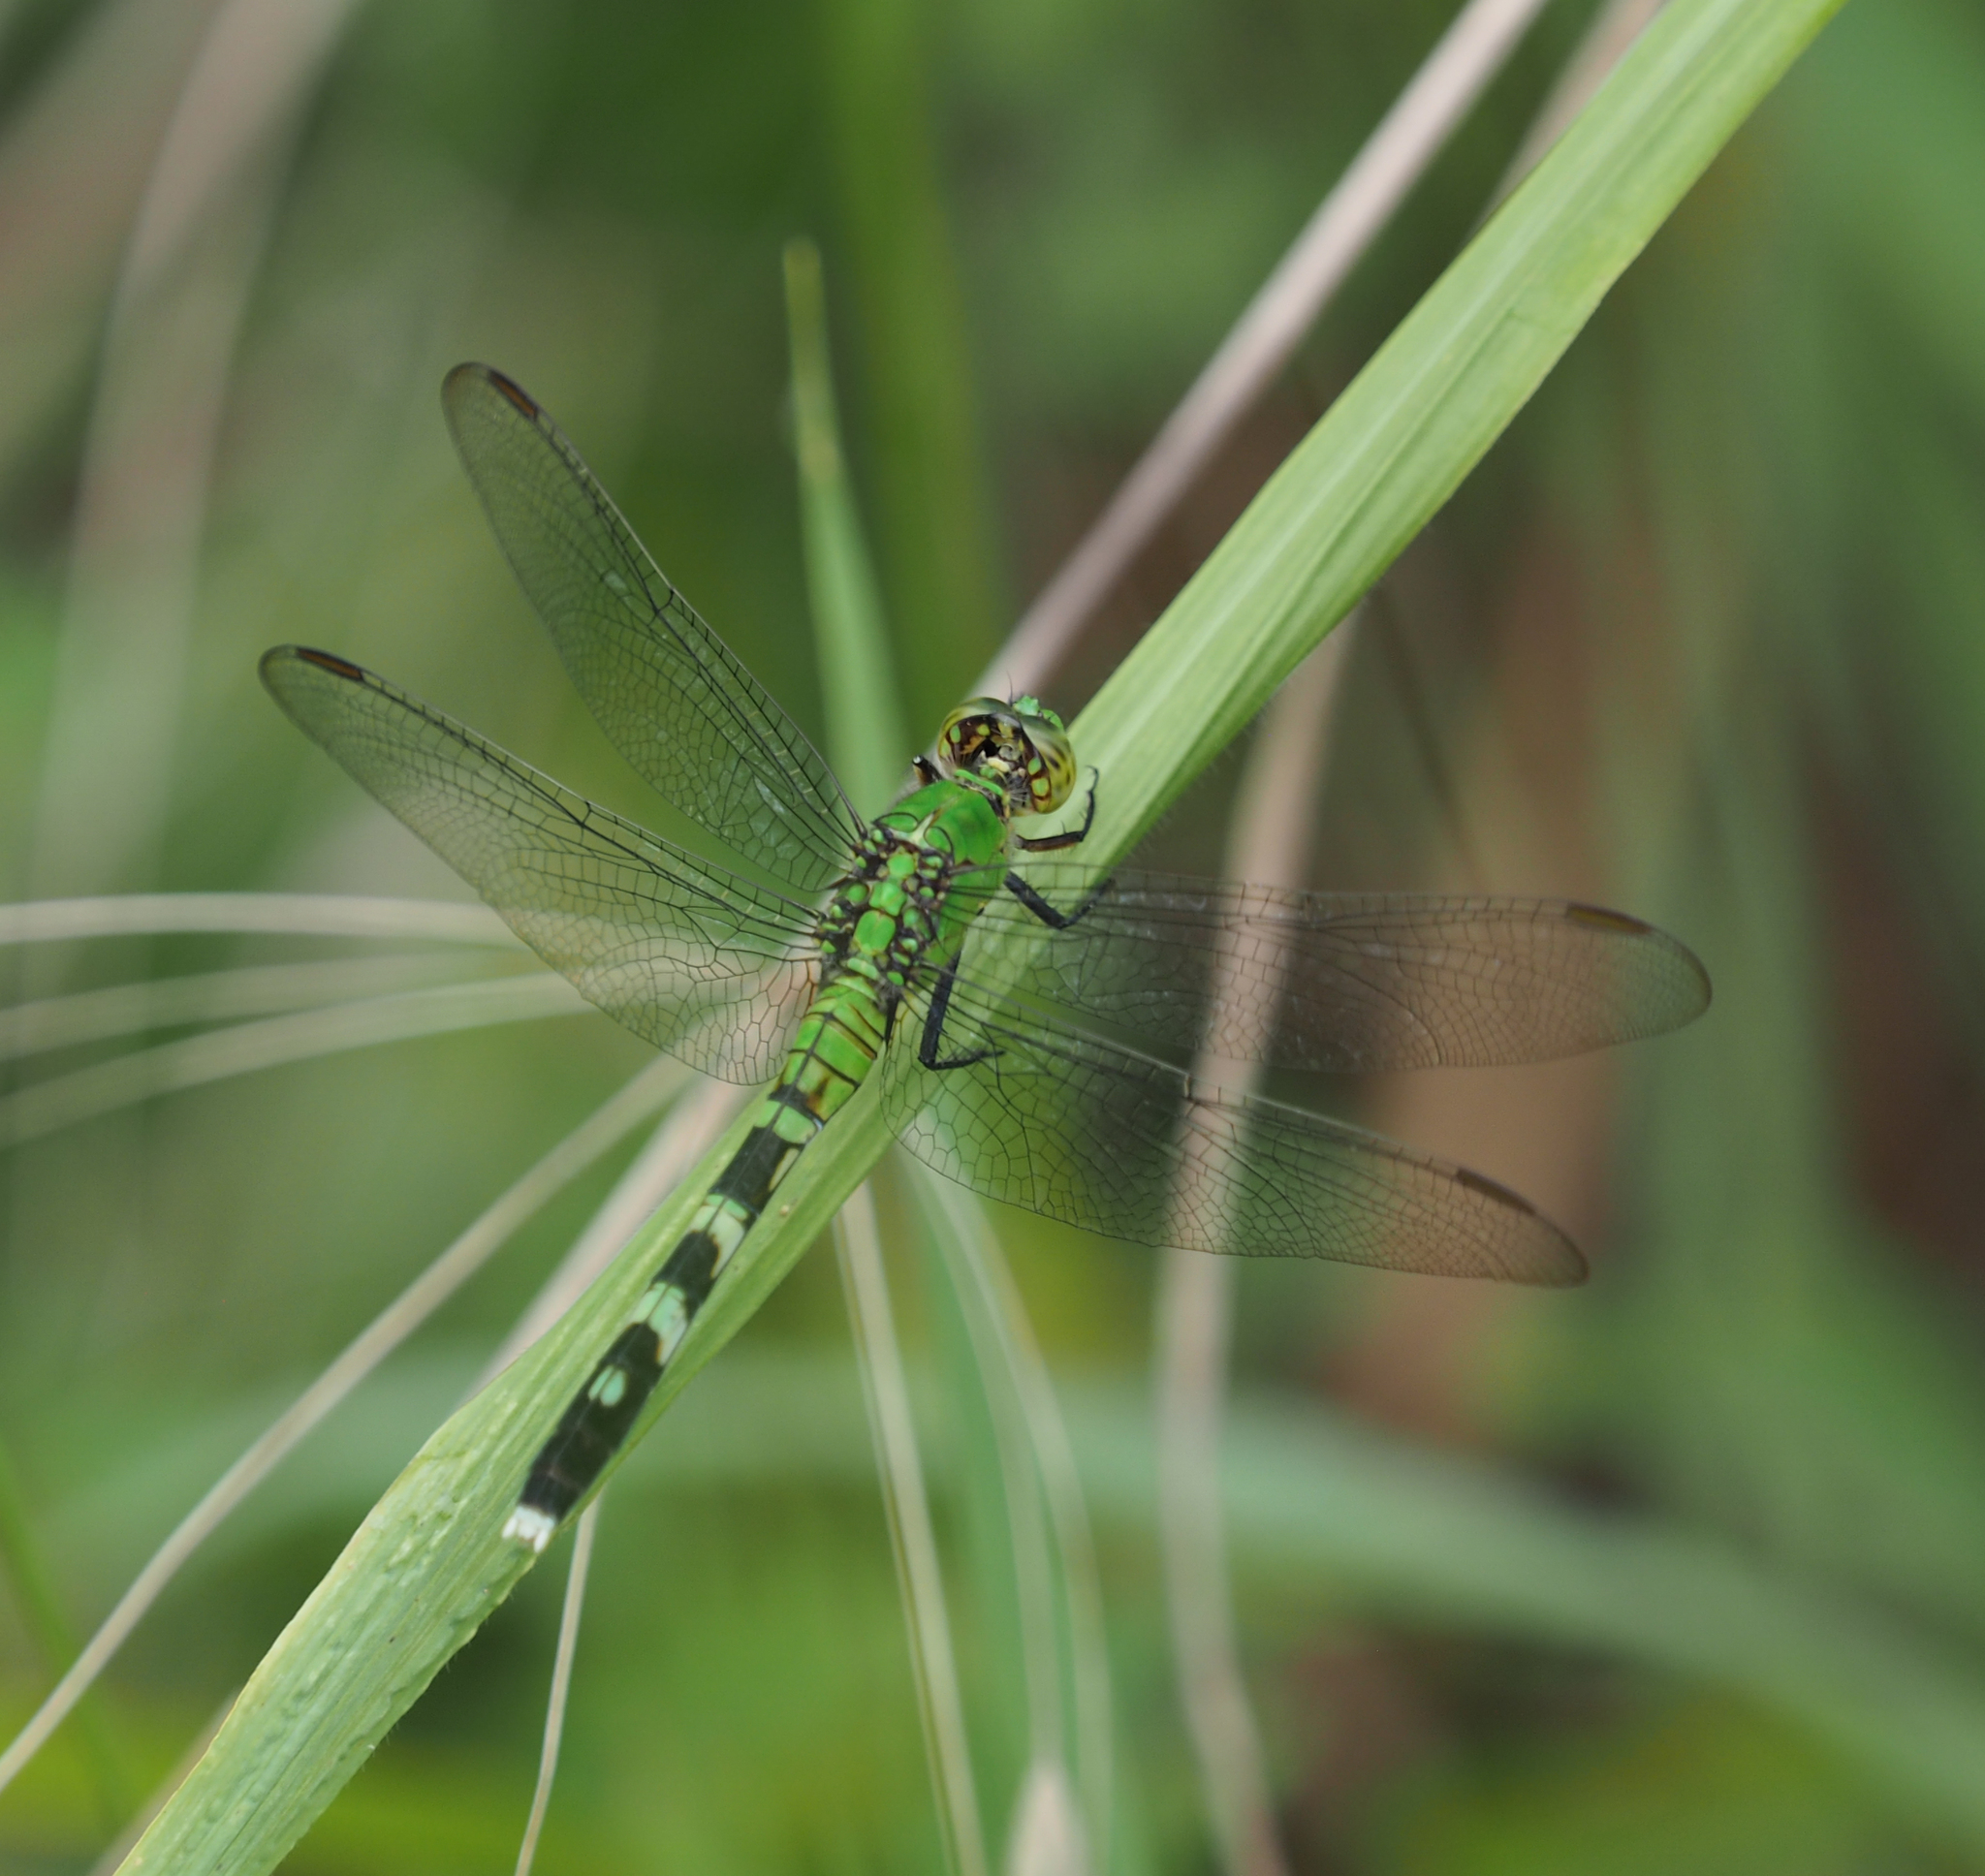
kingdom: Animalia
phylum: Arthropoda
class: Insecta
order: Odonata
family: Libellulidae
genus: Erythemis
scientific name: Erythemis simplicicollis
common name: Eastern pondhawk
